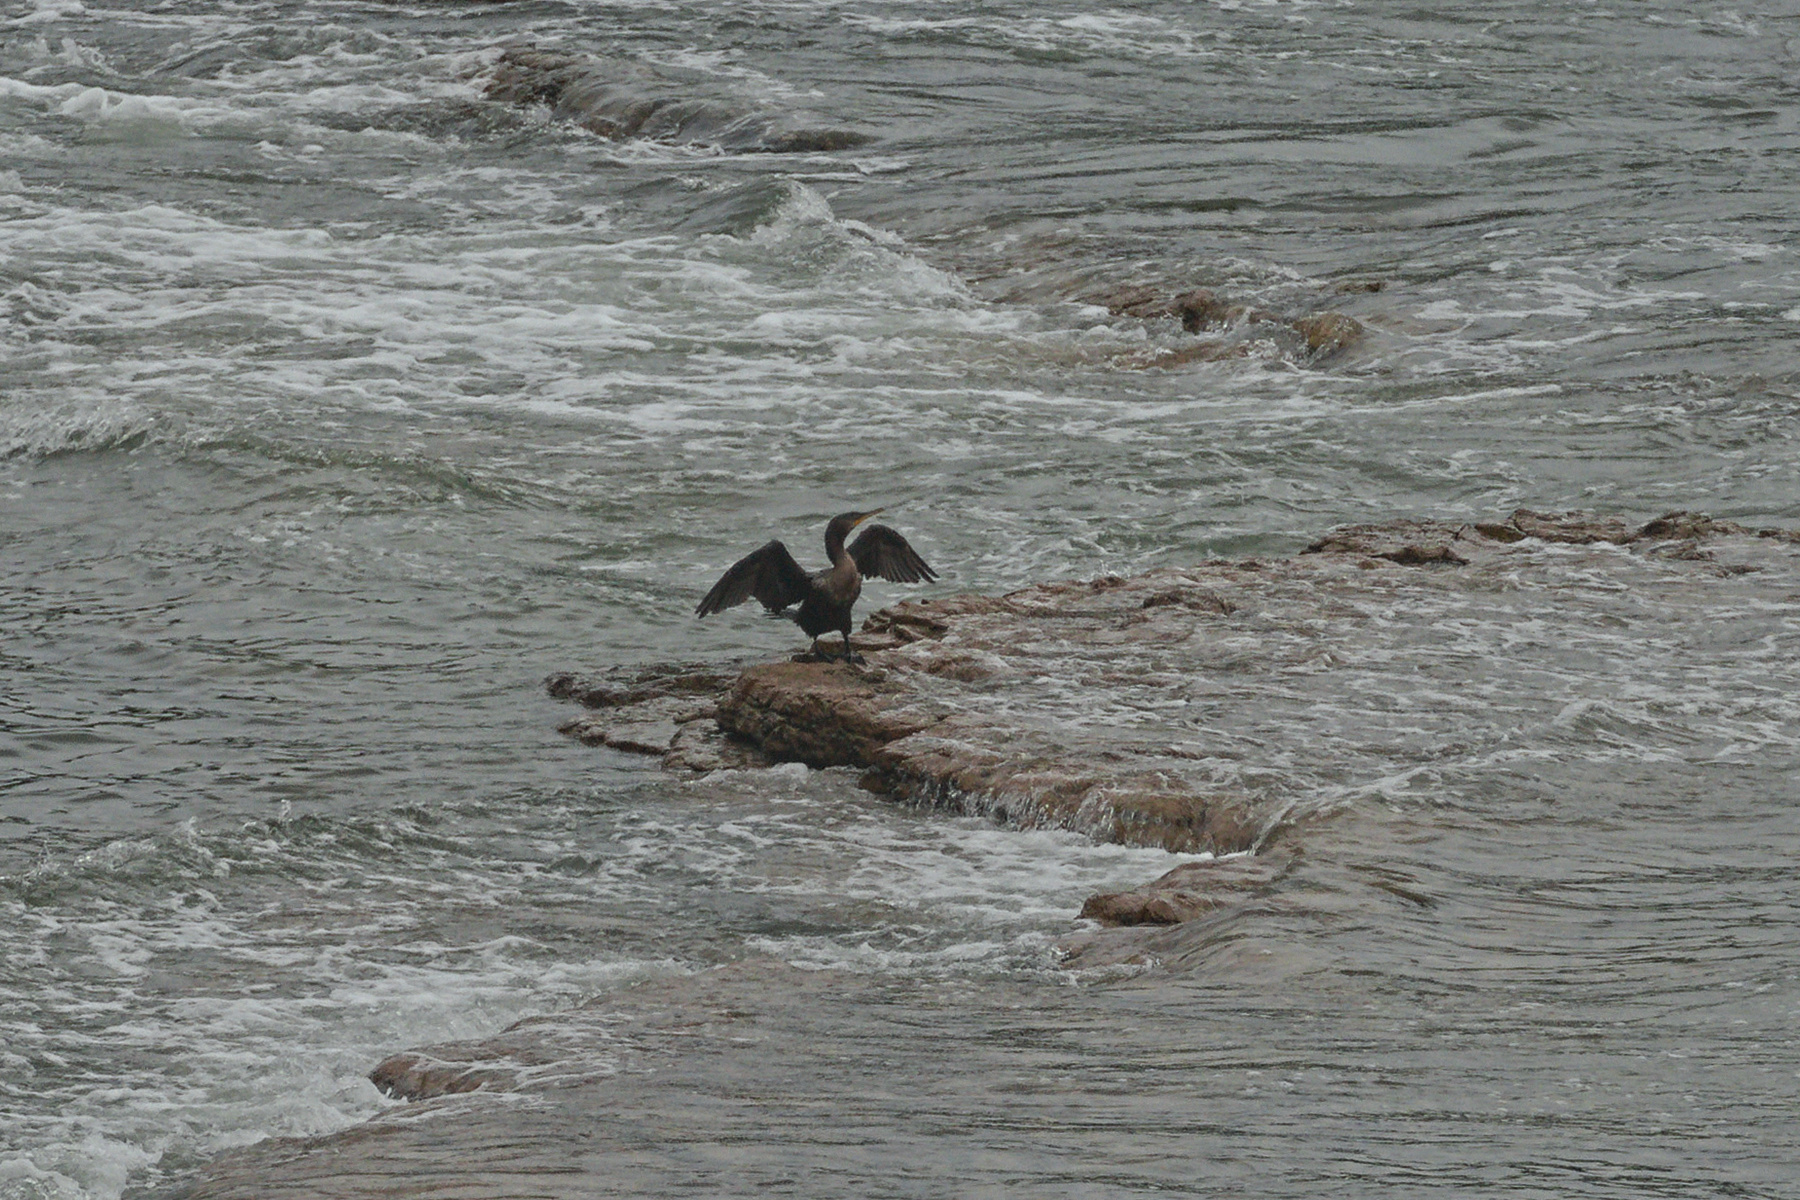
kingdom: Animalia
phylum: Chordata
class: Aves
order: Suliformes
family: Phalacrocoracidae
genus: Phalacrocorax
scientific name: Phalacrocorax brasilianus
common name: Neotropic cormorant
